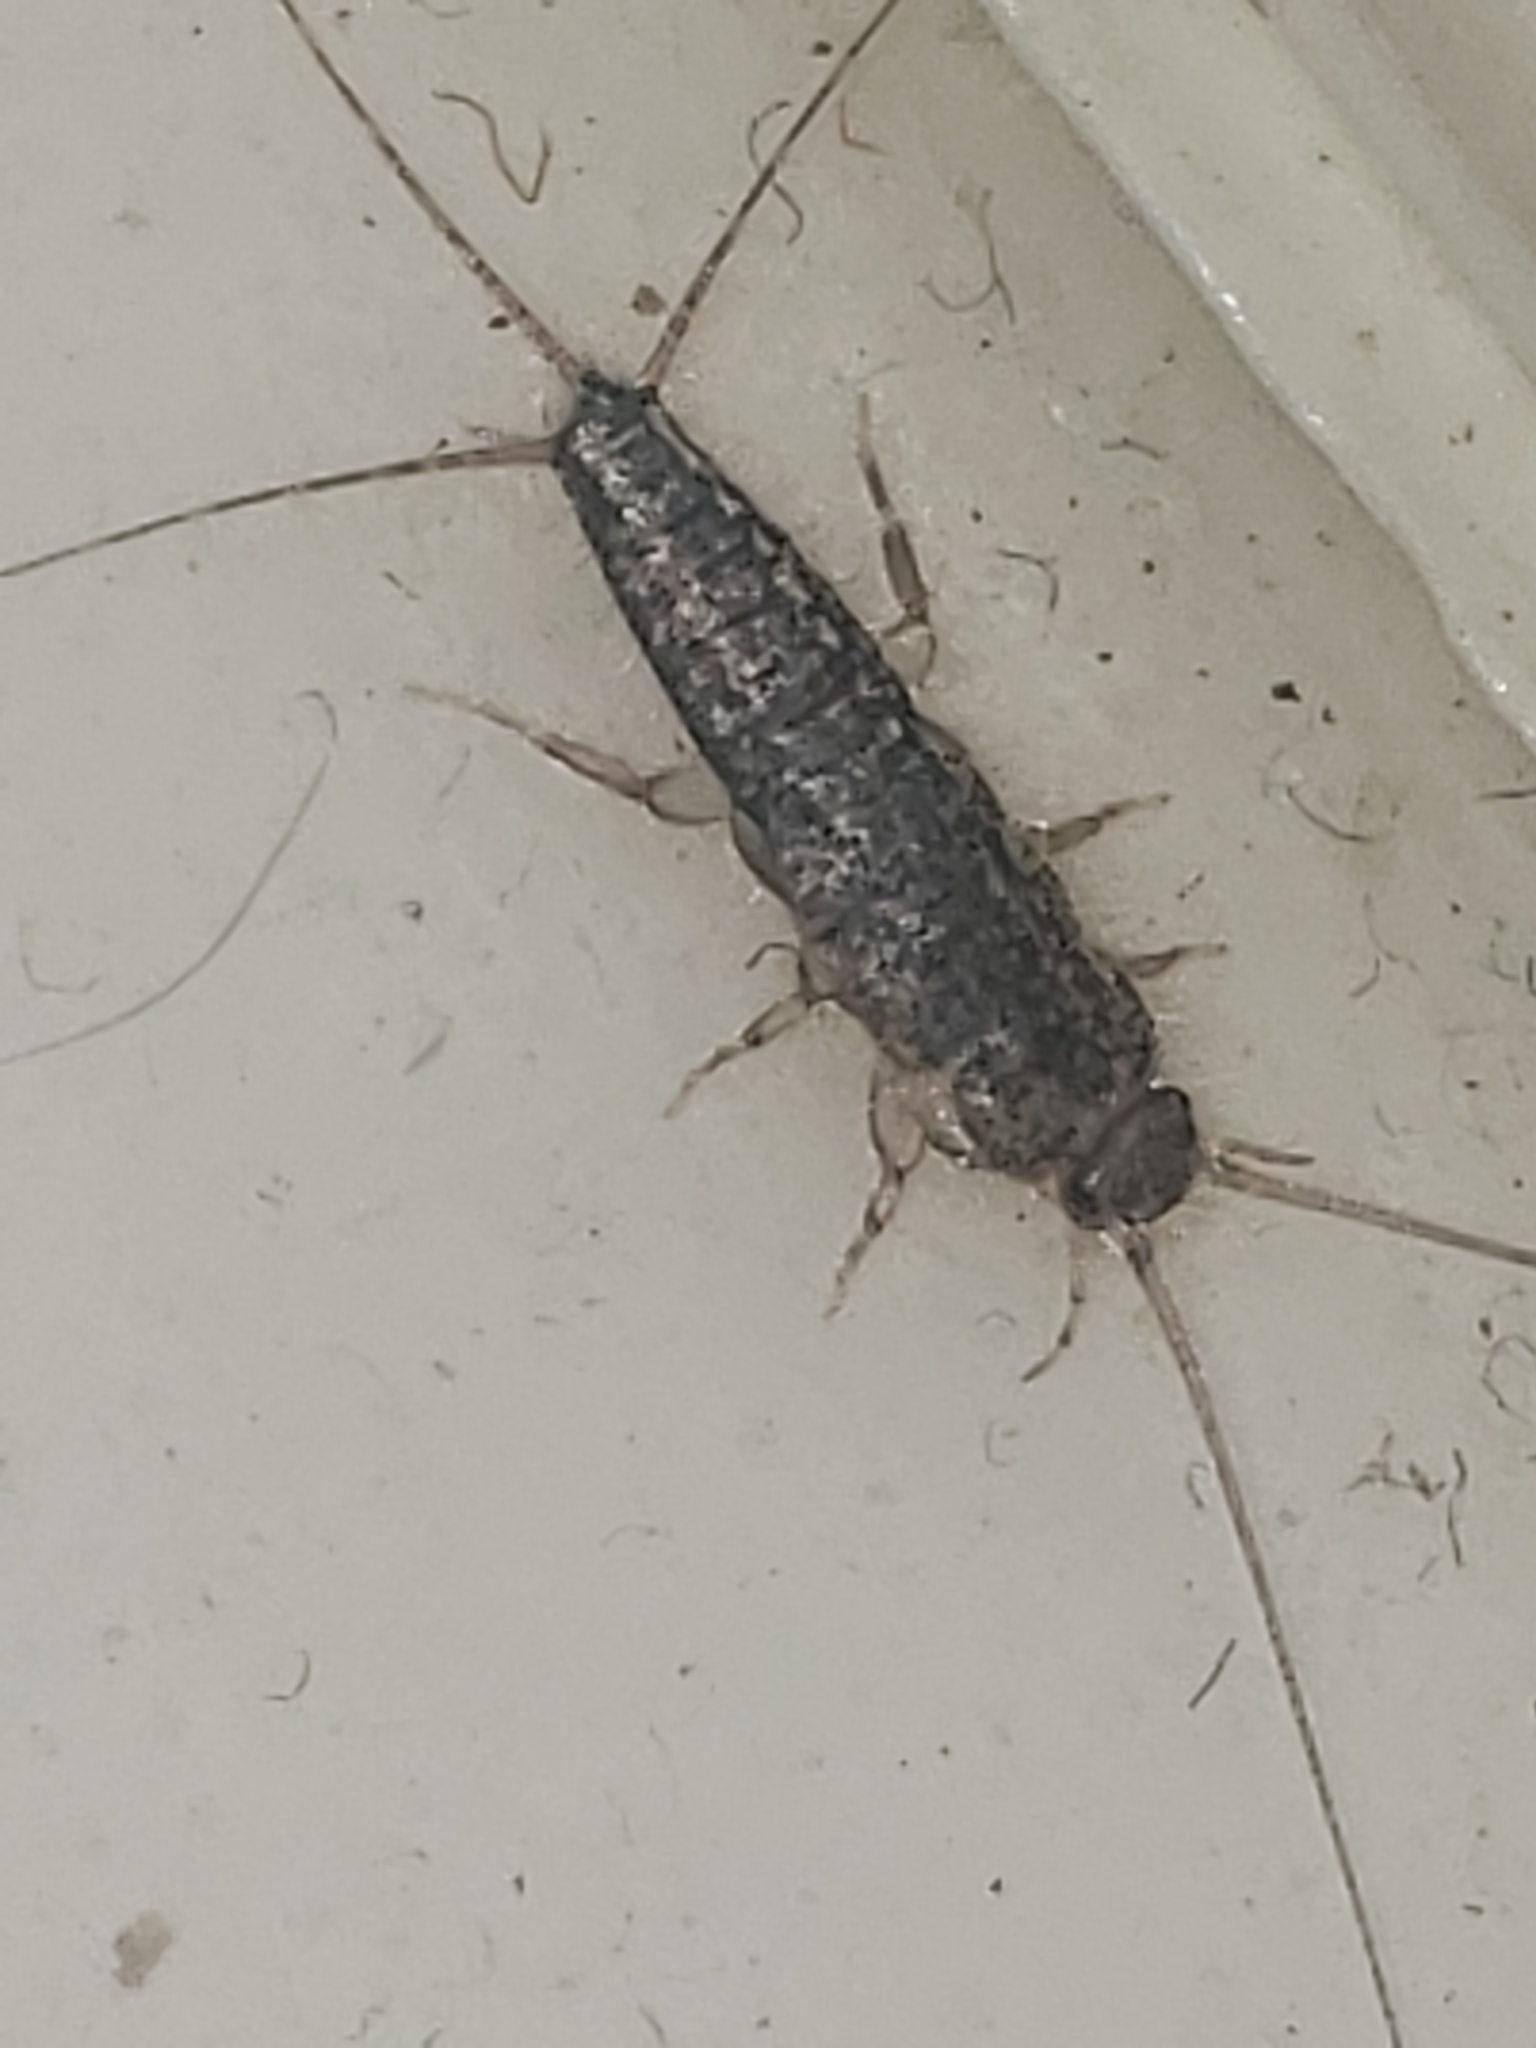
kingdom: Animalia
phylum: Arthropoda
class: Insecta
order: Zygentoma
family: Lepismatidae
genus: Ctenolepisma
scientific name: Ctenolepisma lineata
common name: Four-lined silverfish
